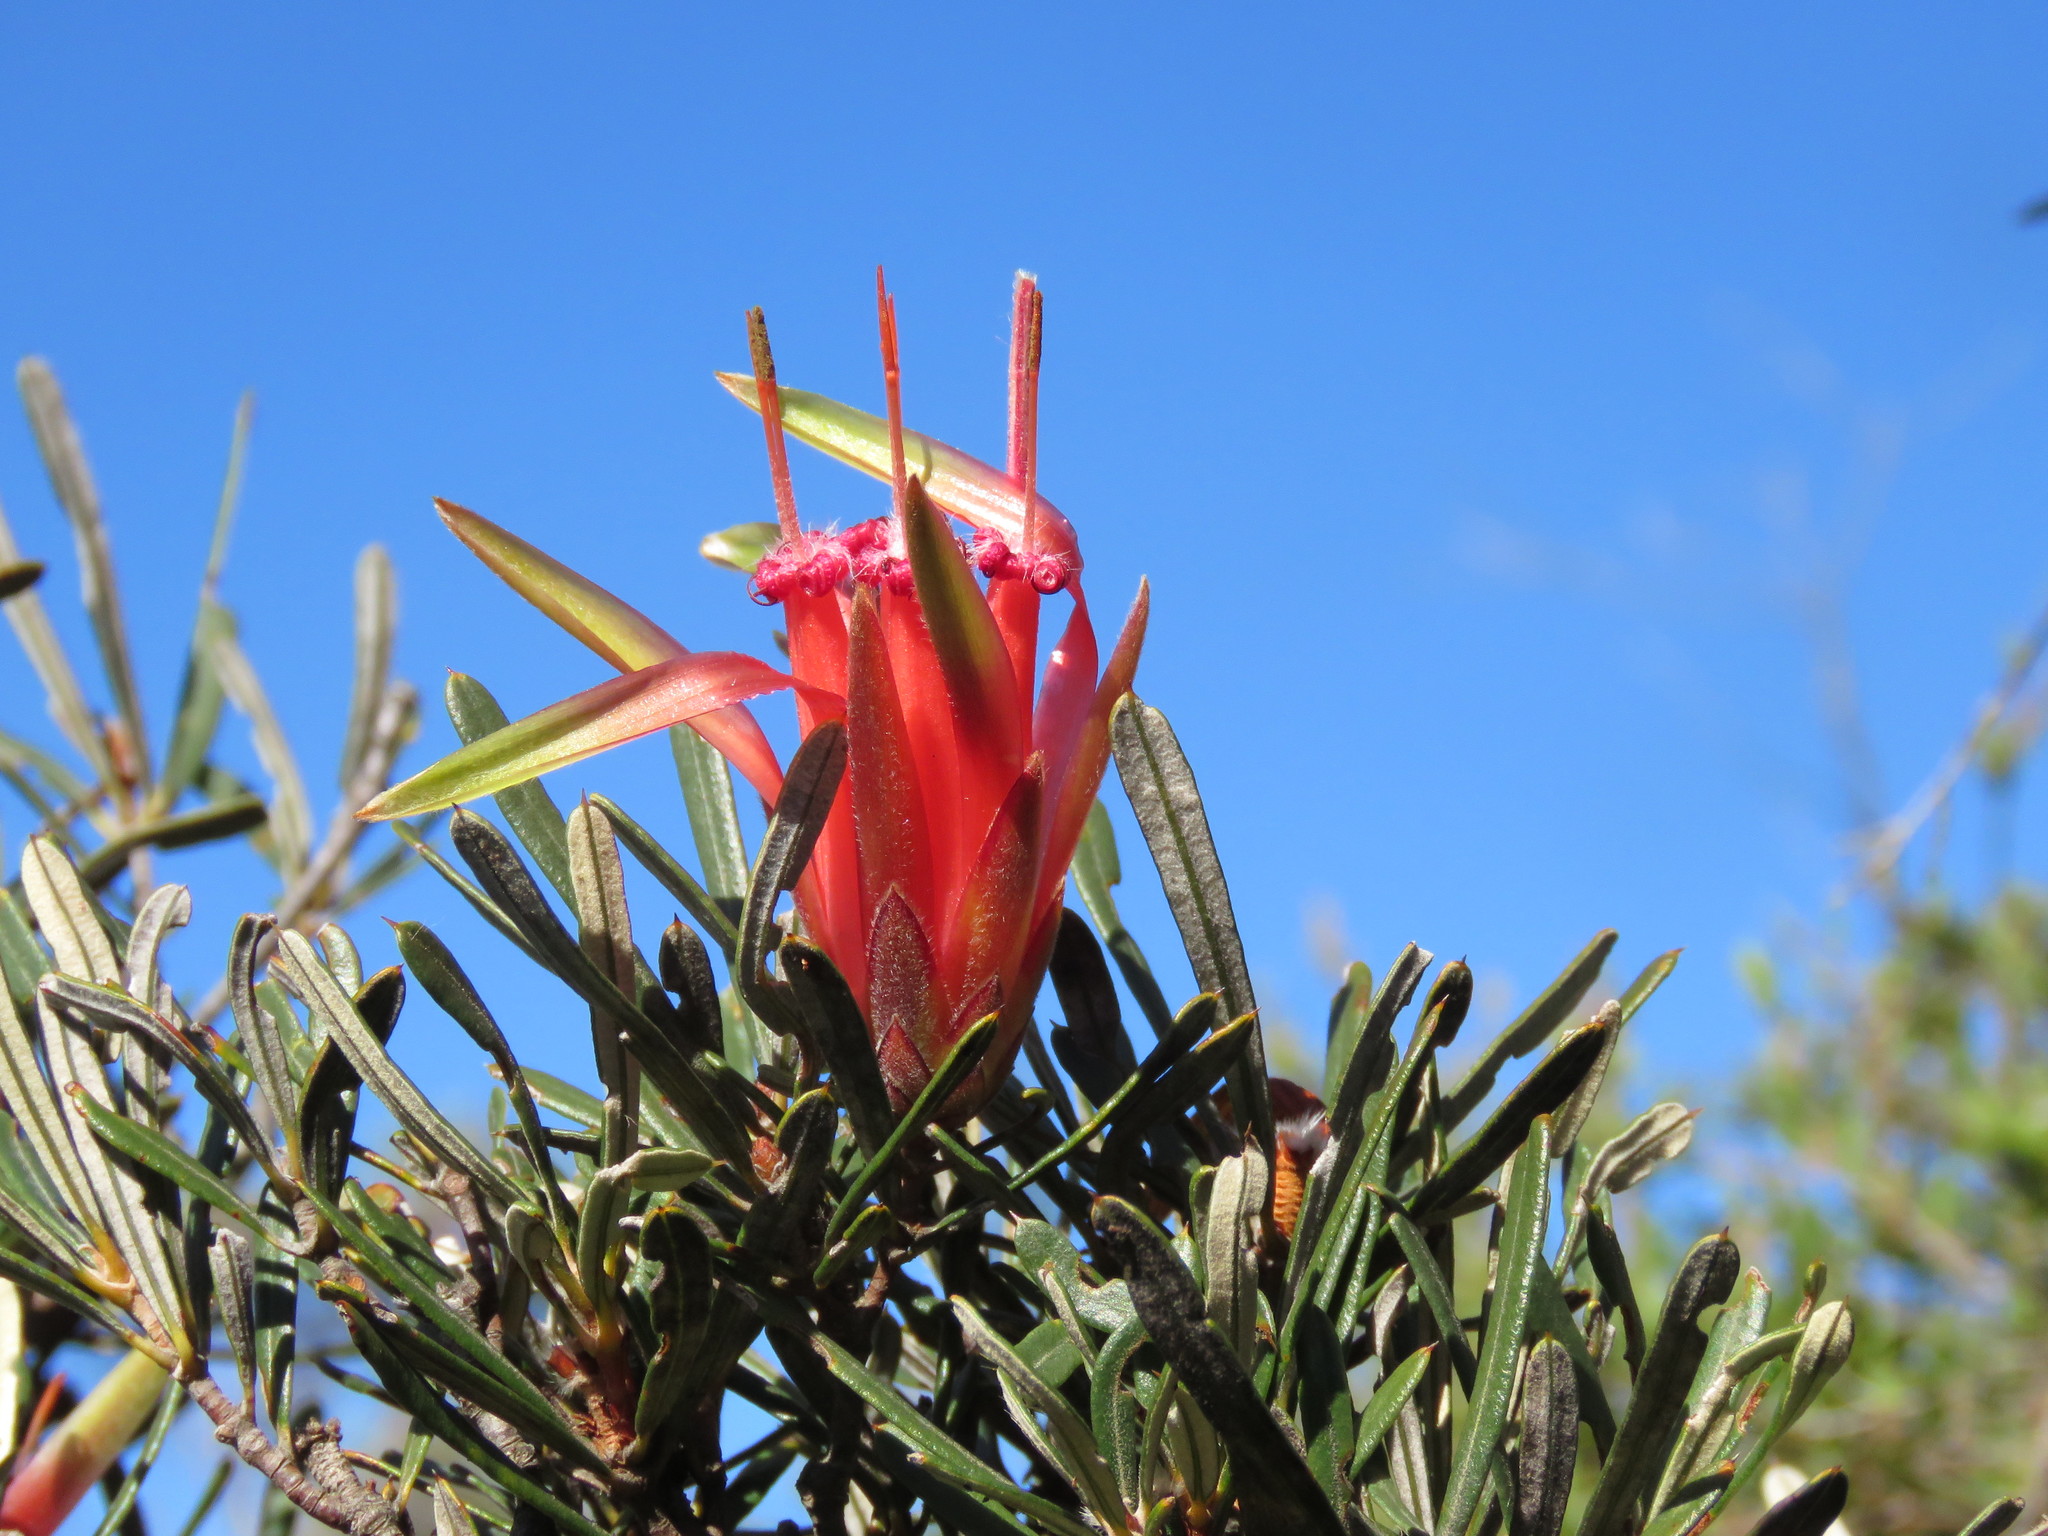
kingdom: Plantae
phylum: Tracheophyta
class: Magnoliopsida
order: Proteales
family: Proteaceae
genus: Lambertia
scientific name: Lambertia formosa
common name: Mountain-devil
